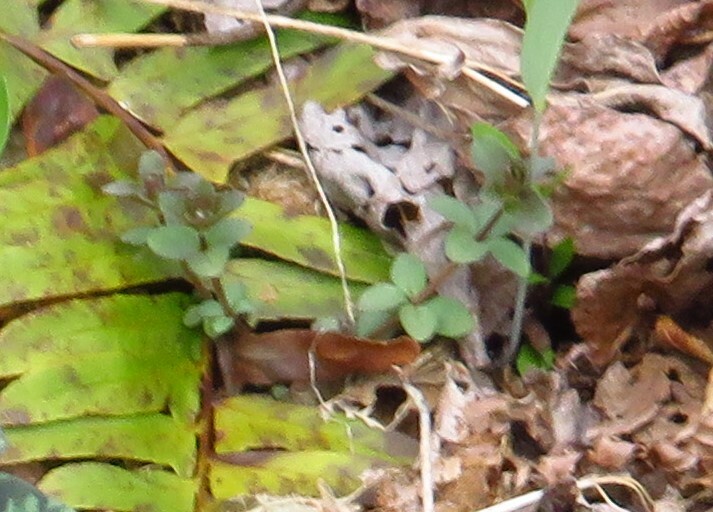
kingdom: Plantae
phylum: Tracheophyta
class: Magnoliopsida
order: Gentianales
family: Rubiaceae
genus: Galium
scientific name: Galium circaezans
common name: Forest bedstraw
